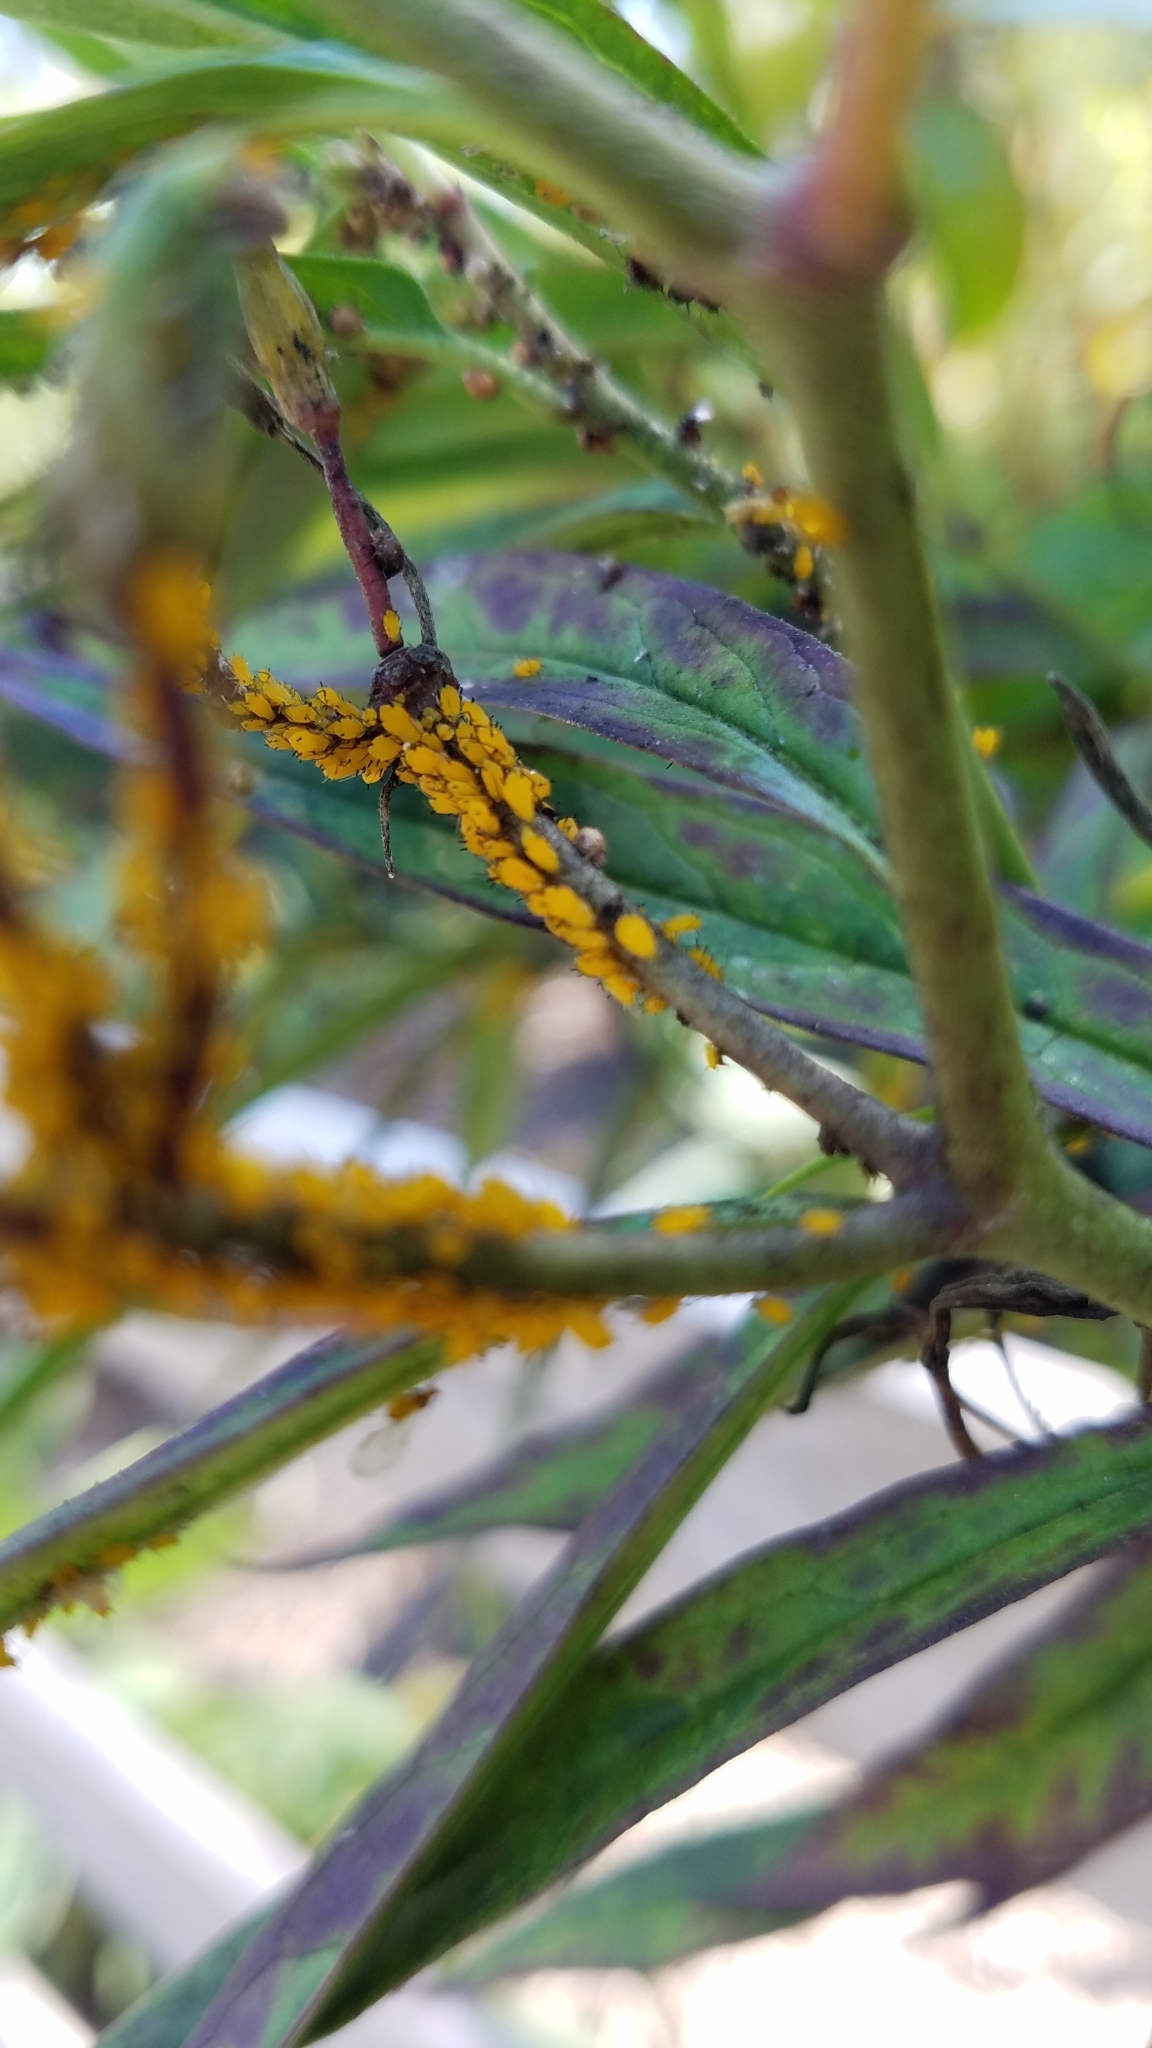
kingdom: Animalia
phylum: Arthropoda
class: Insecta
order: Hemiptera
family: Aphididae
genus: Aphis
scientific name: Aphis nerii
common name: Oleander aphid
